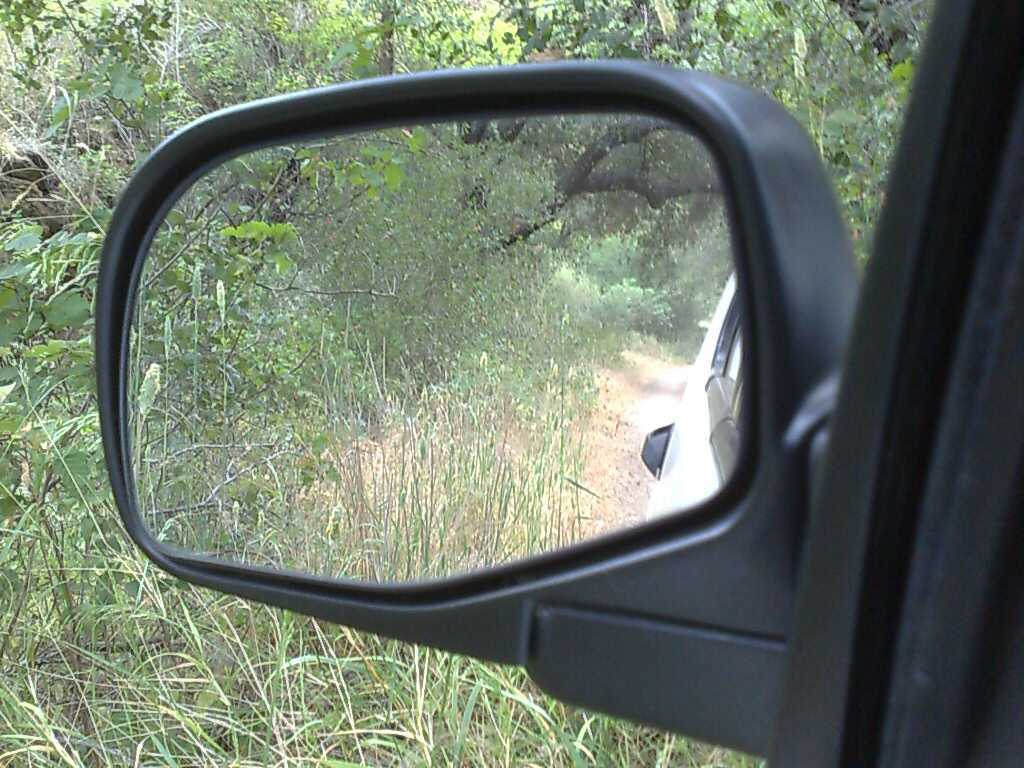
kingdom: Plantae
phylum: Tracheophyta
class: Liliopsida
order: Poales
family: Poaceae
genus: Phalaris
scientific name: Phalaris aquatica
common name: Bulbous canary-grass
